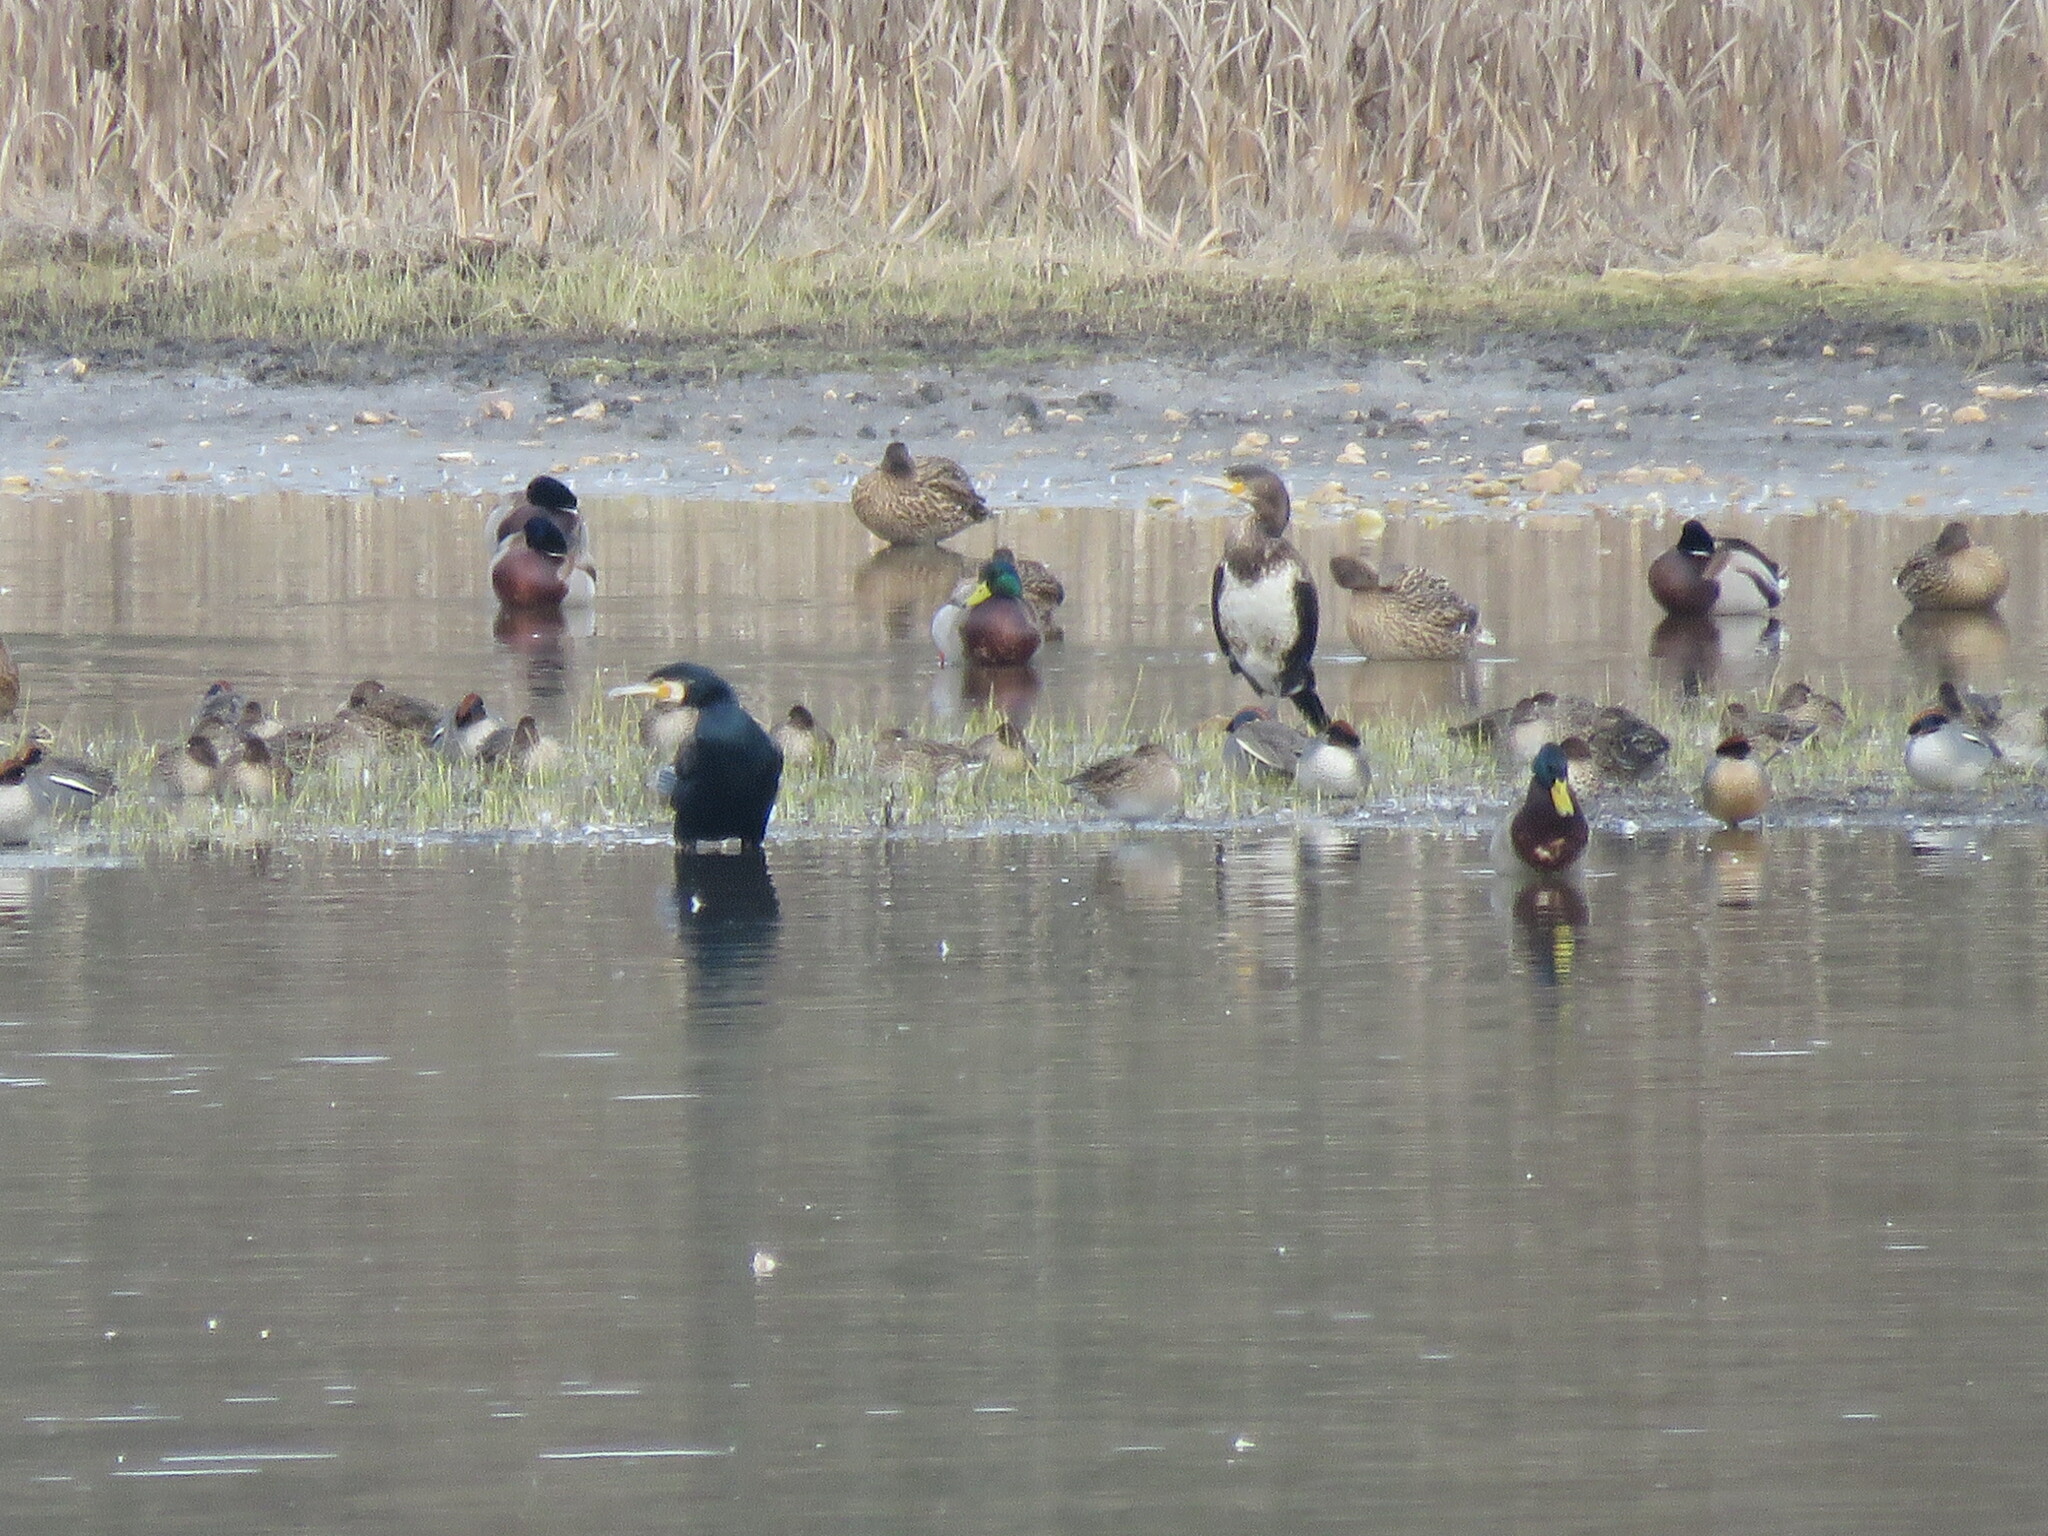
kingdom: Animalia
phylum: Chordata
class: Aves
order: Anseriformes
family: Anatidae
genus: Anas
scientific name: Anas crecca
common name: Eurasian teal
